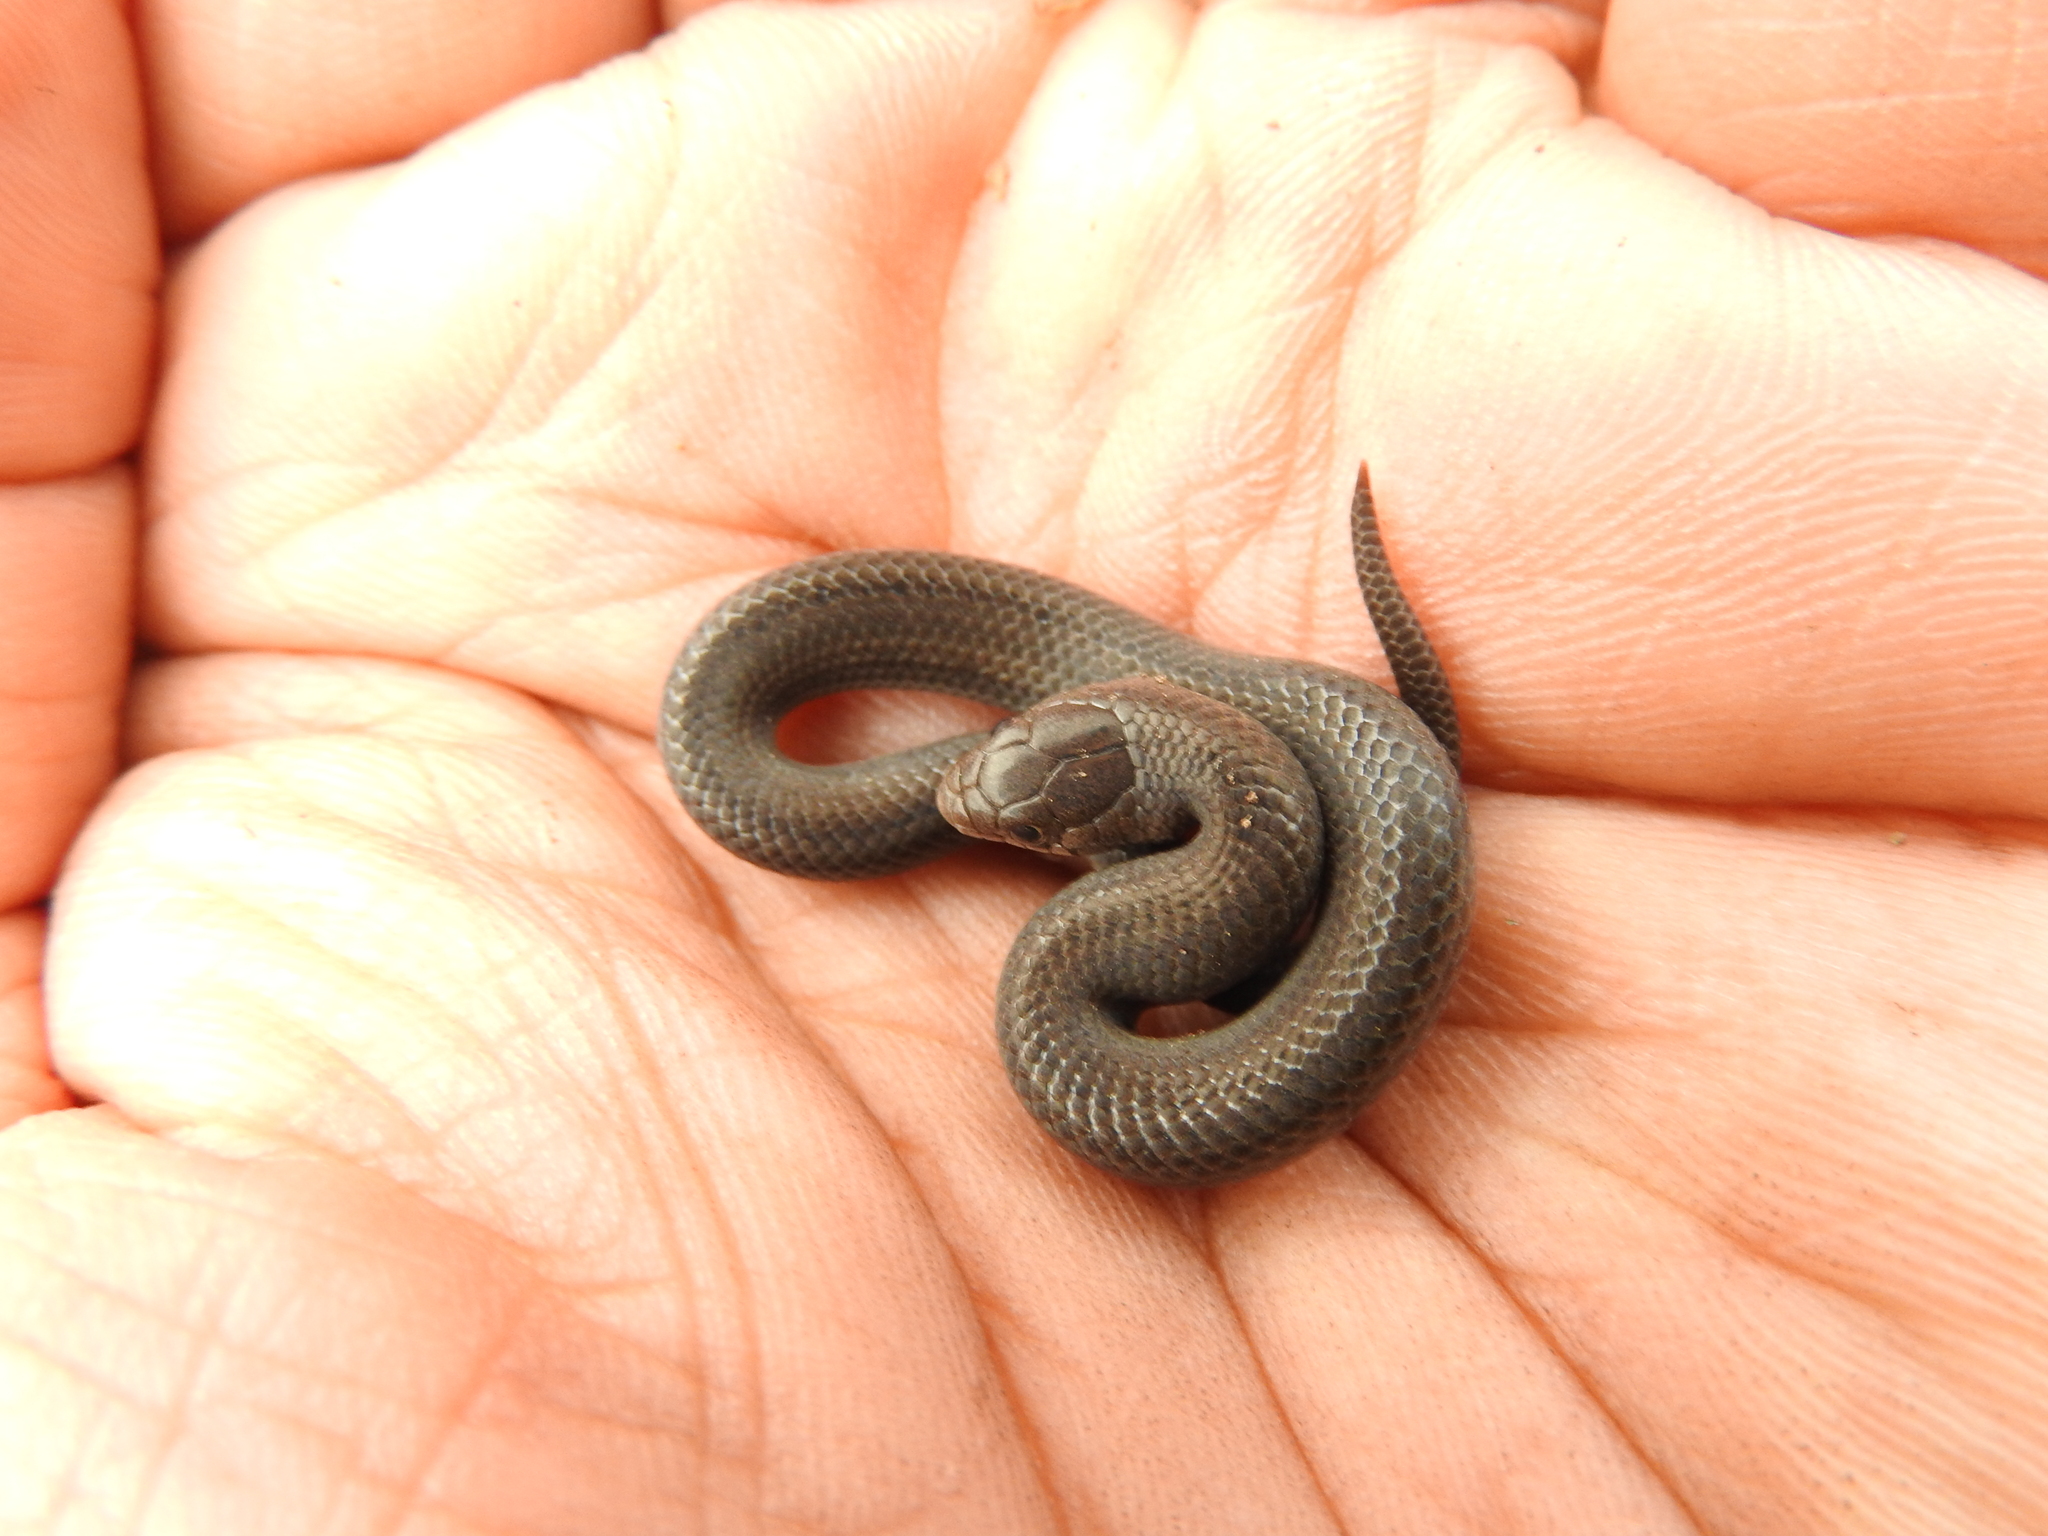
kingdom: Animalia
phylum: Chordata
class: Squamata
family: Colubridae
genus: Conopsis
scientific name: Conopsis lineata
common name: Lined tolucan earthsnake
